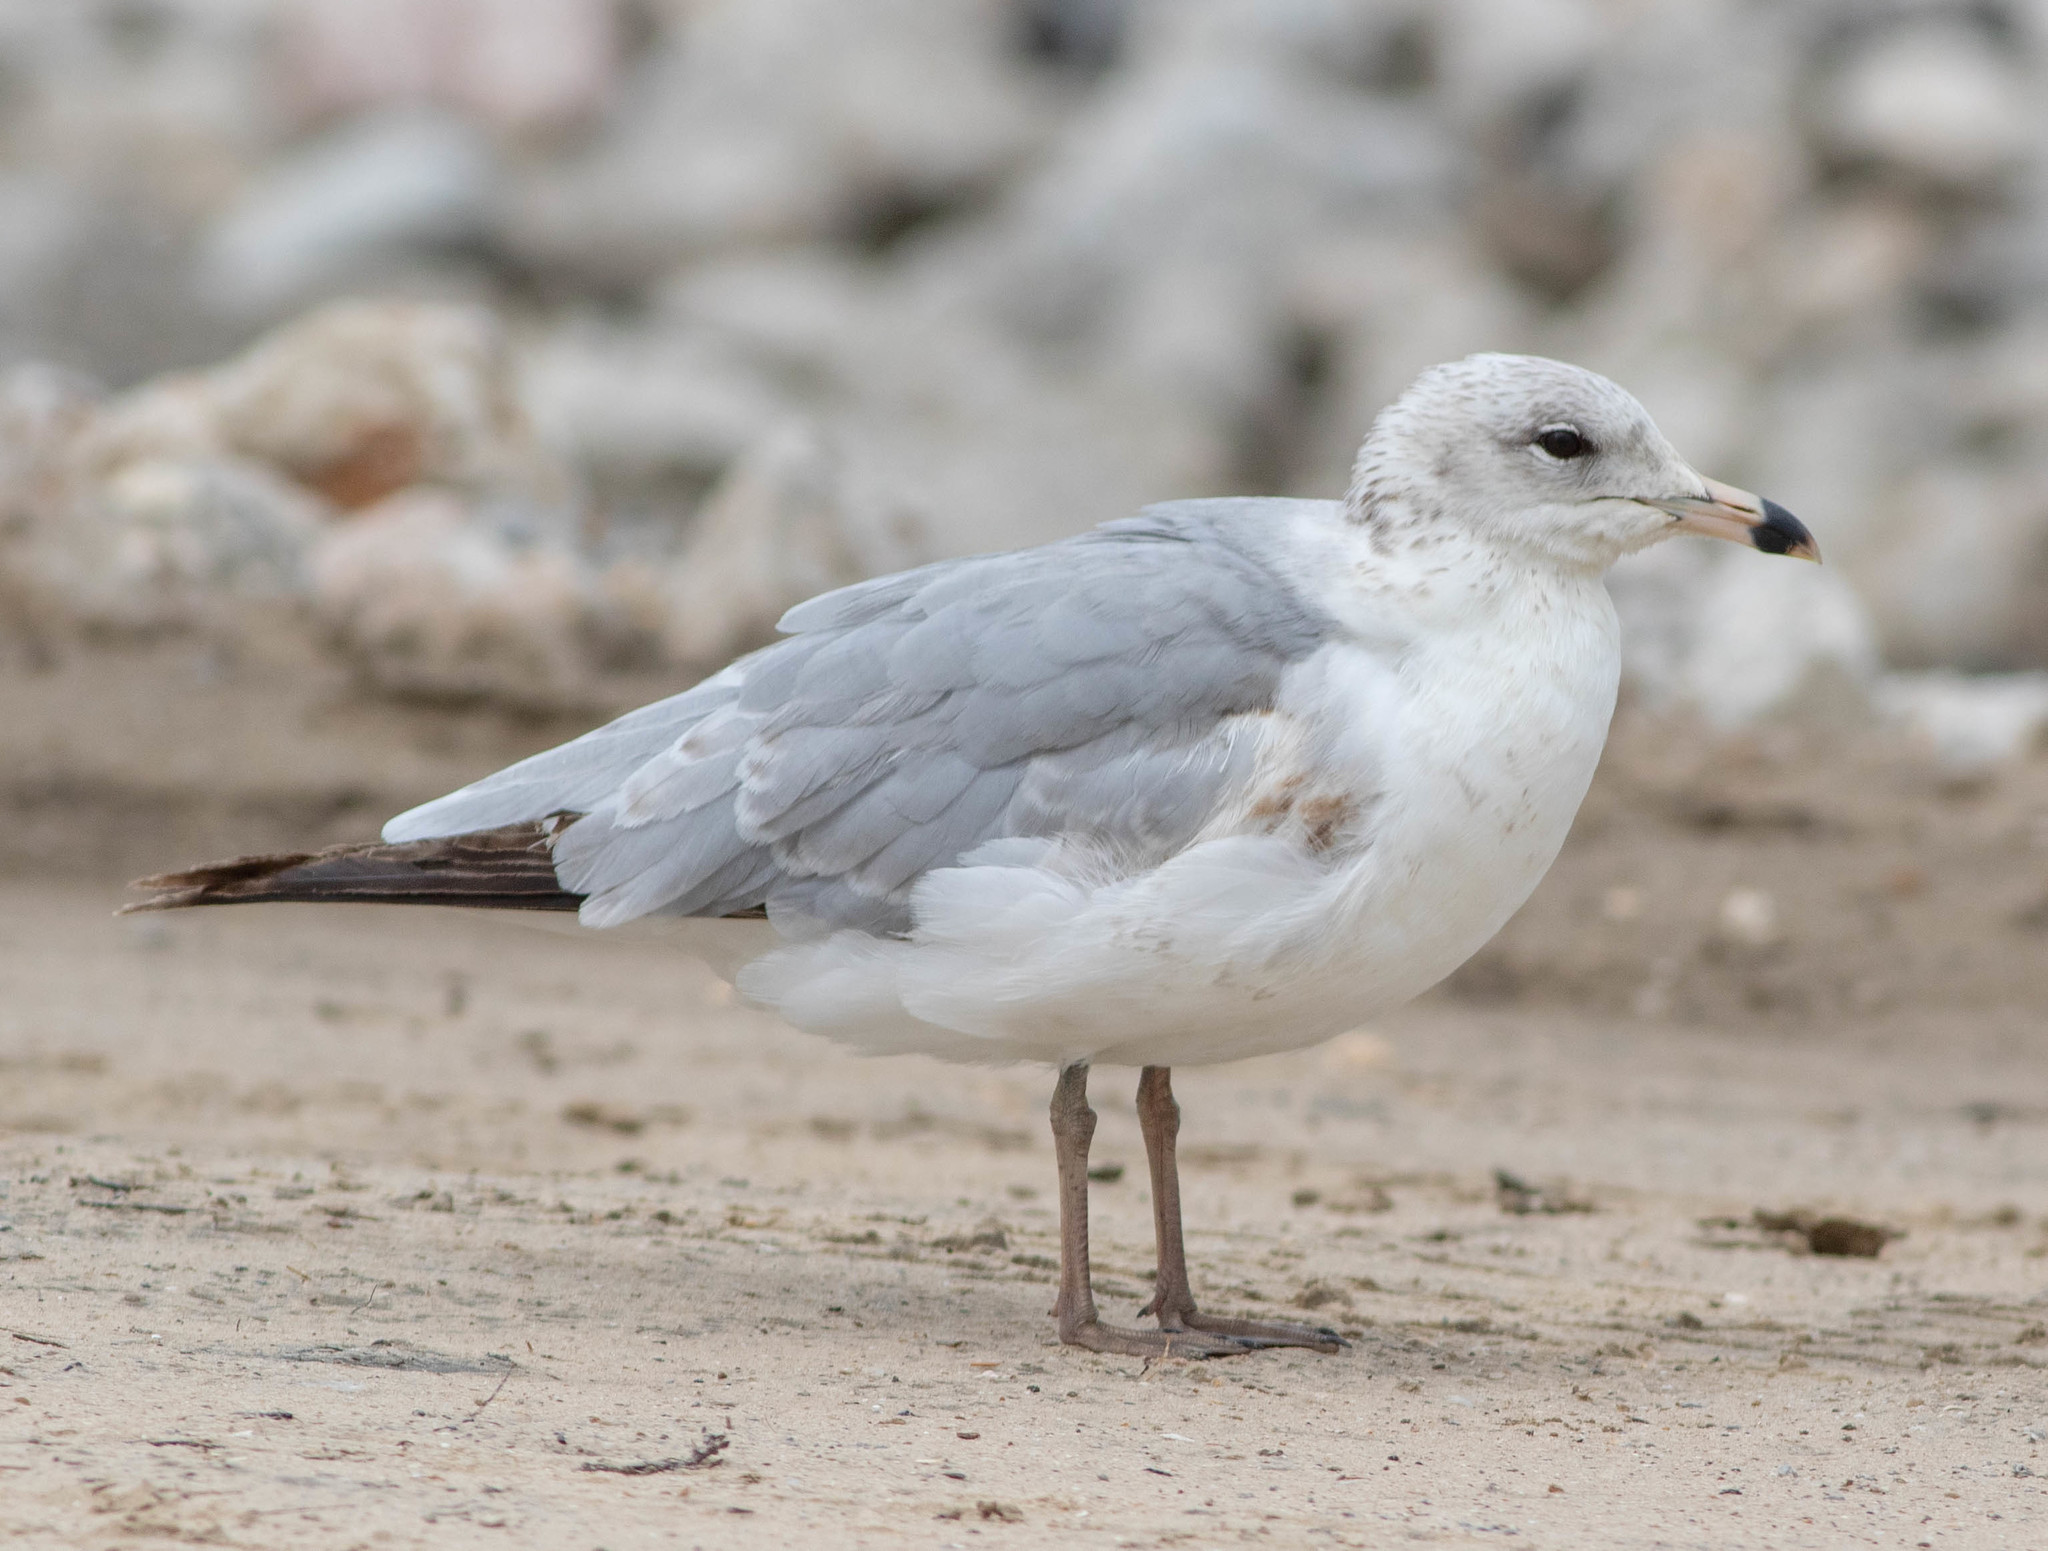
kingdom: Animalia
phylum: Chordata
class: Aves
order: Charadriiformes
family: Laridae
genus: Larus
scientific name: Larus delawarensis
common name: Ring-billed gull
